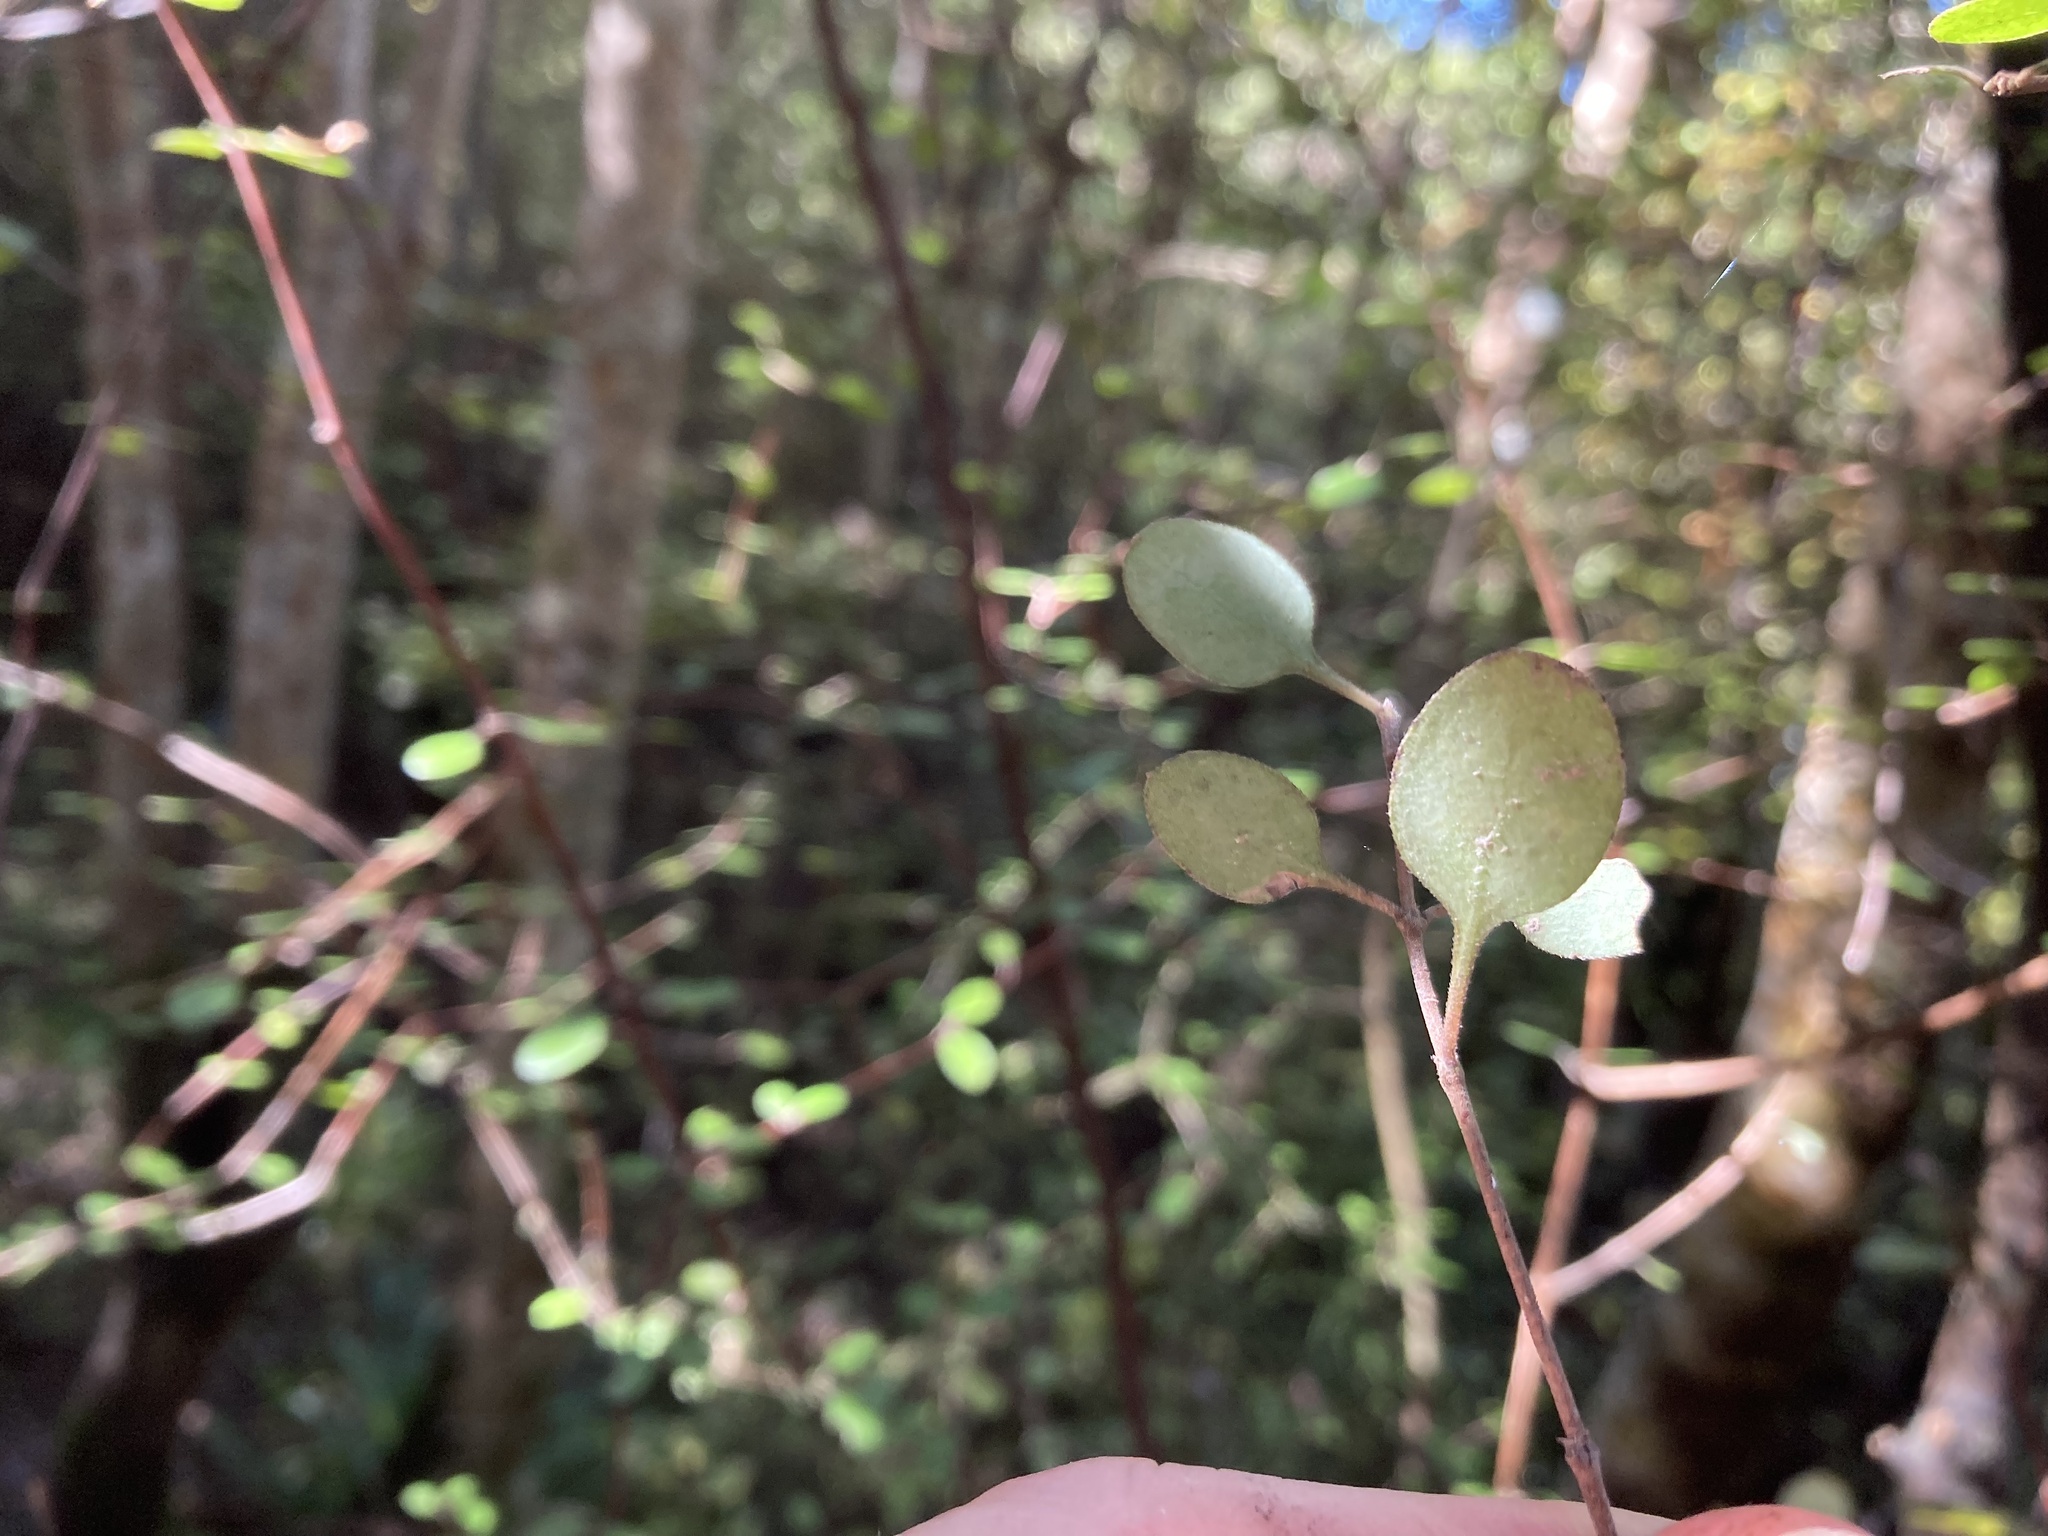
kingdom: Plantae
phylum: Tracheophyta
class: Magnoliopsida
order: Gentianales
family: Rubiaceae
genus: Coprosma
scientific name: Coprosma crassifolia
